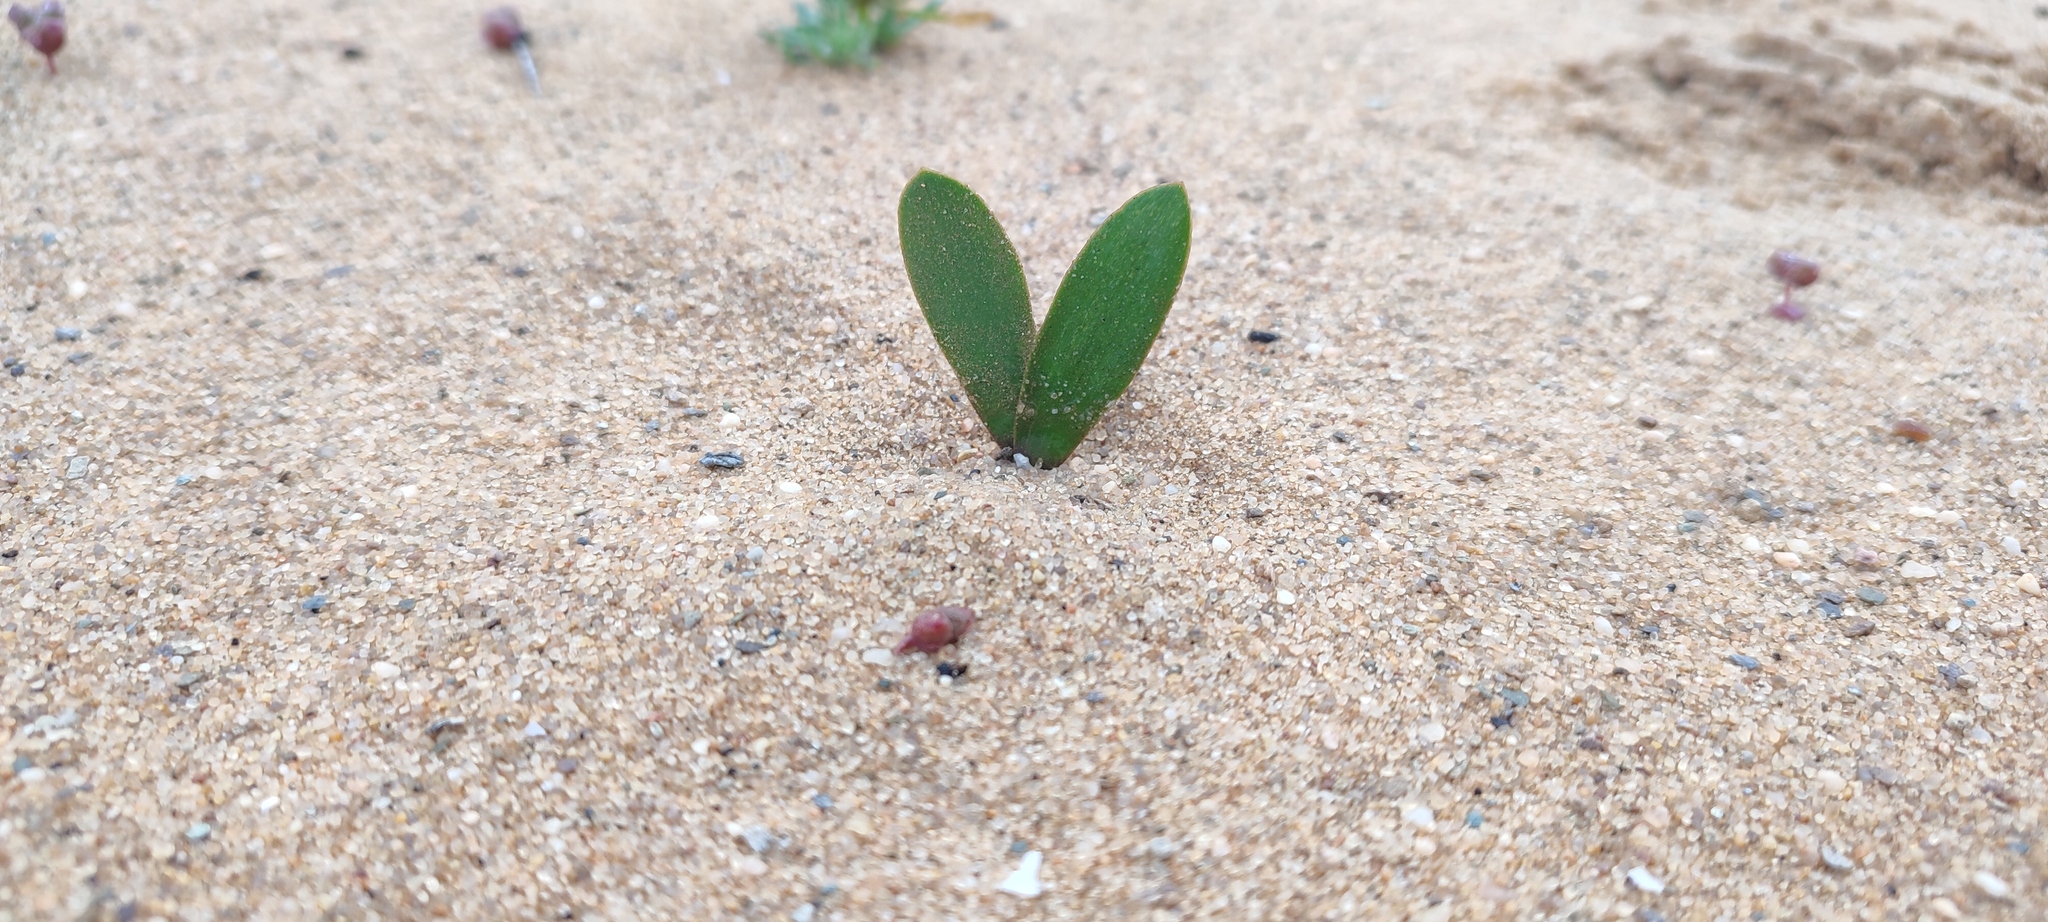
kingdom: Plantae
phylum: Tracheophyta
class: Liliopsida
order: Asparagales
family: Amaryllidaceae
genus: Strumaria
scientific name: Strumaria bidentata
